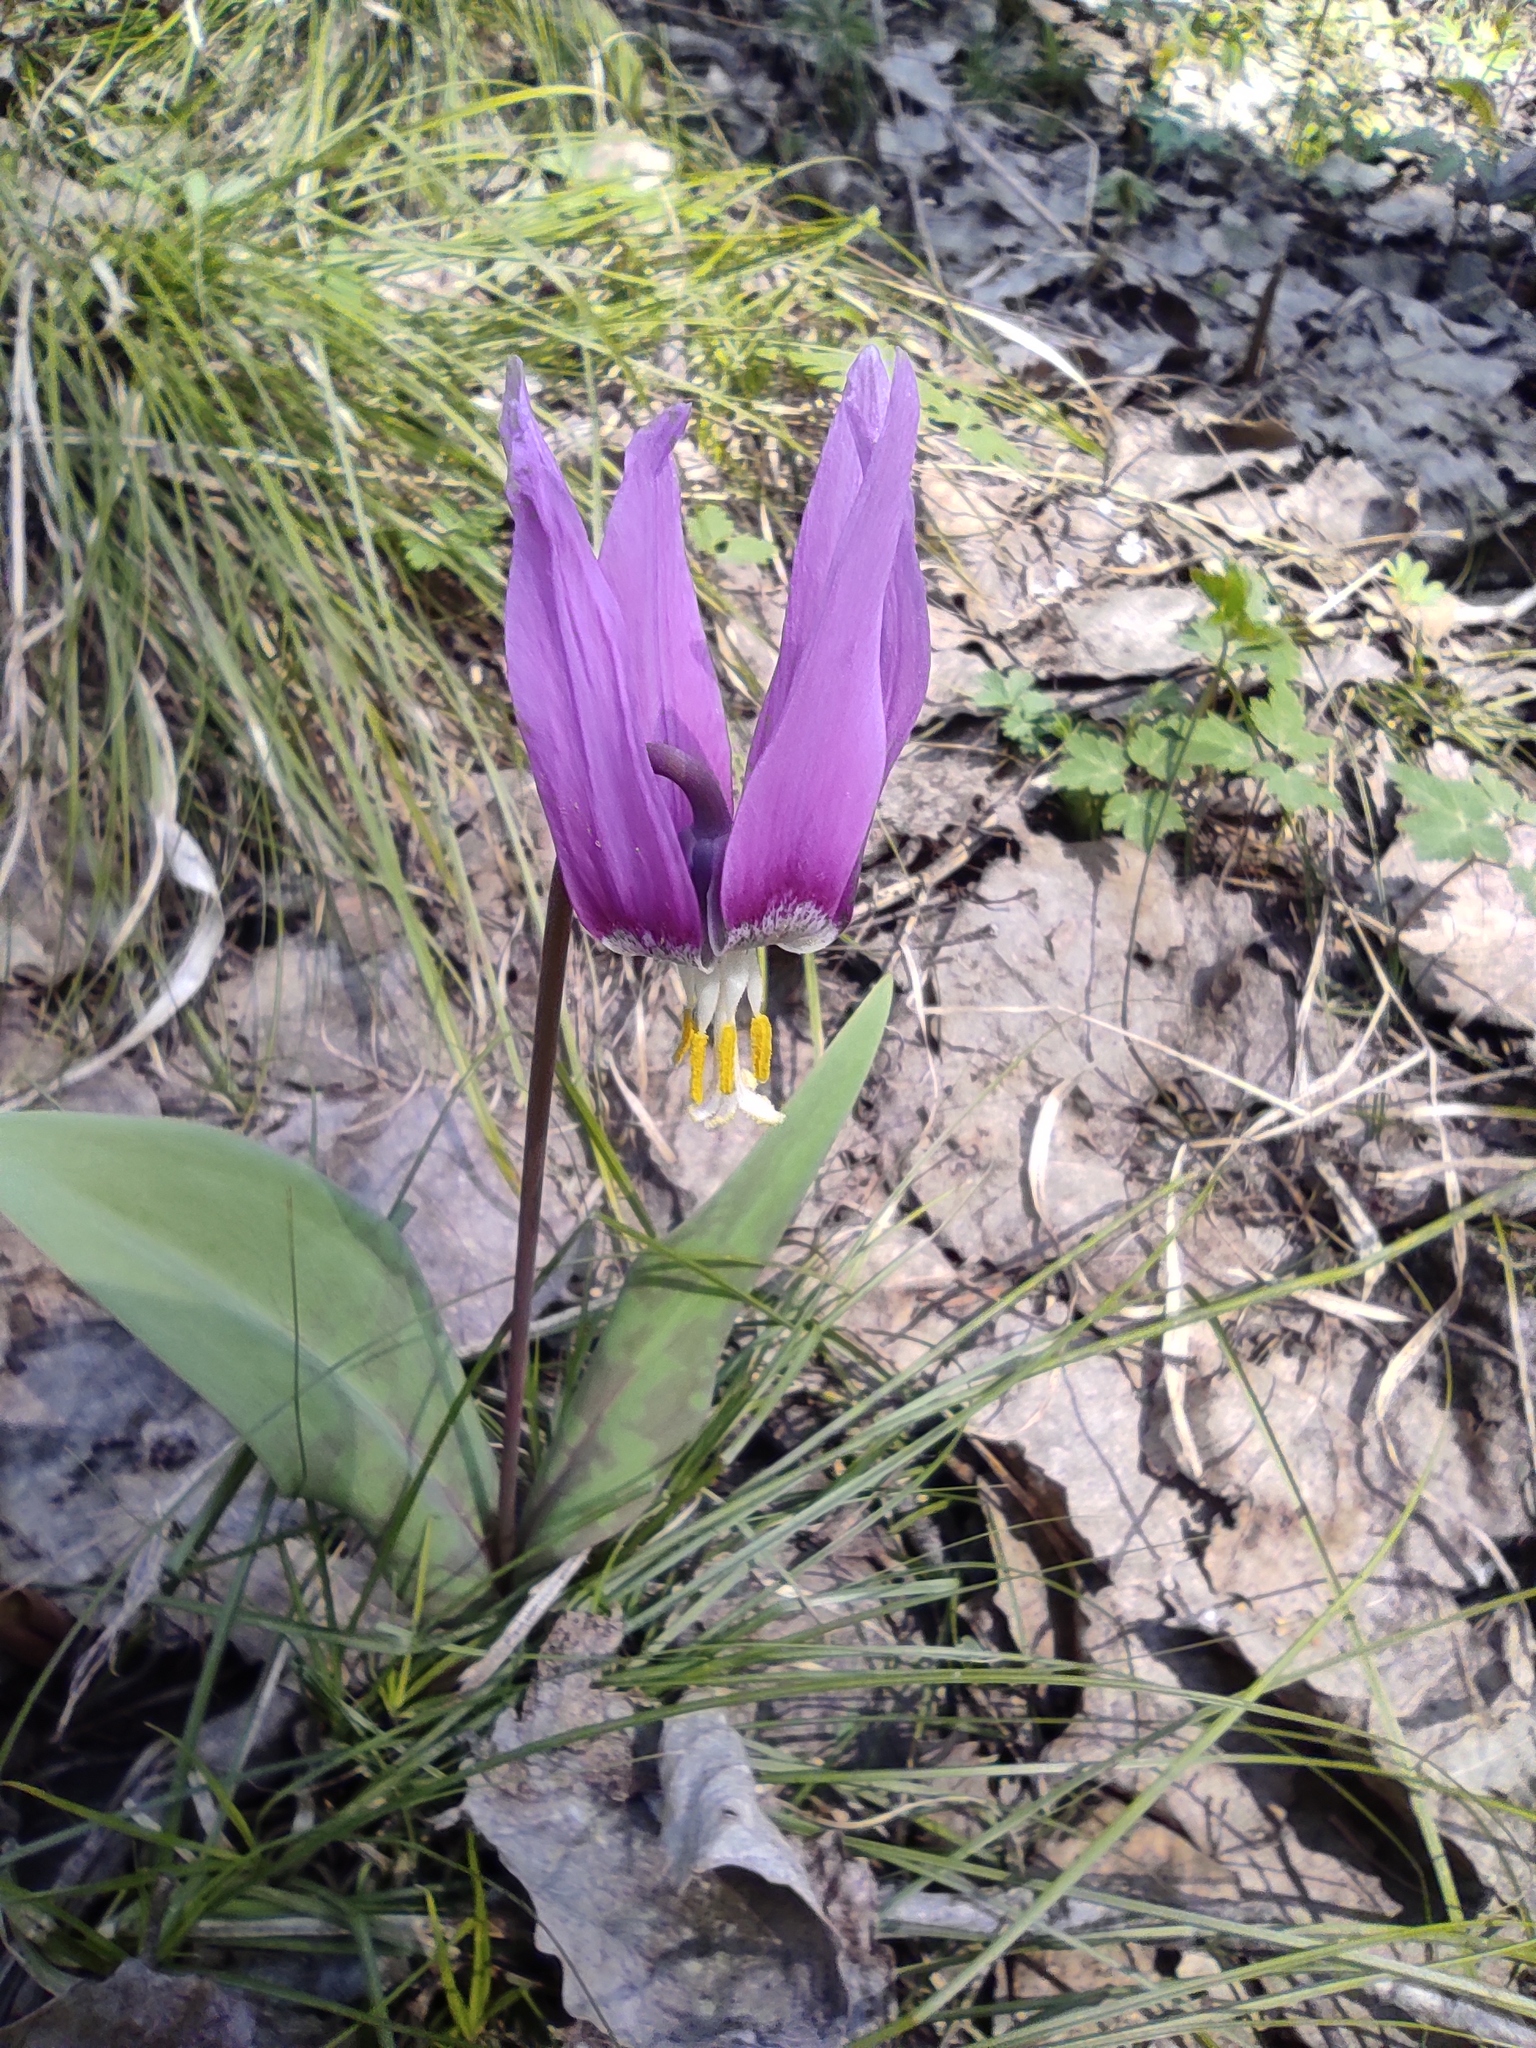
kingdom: Plantae
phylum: Tracheophyta
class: Liliopsida
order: Liliales
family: Liliaceae
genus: Erythronium
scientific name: Erythronium sibiricum
